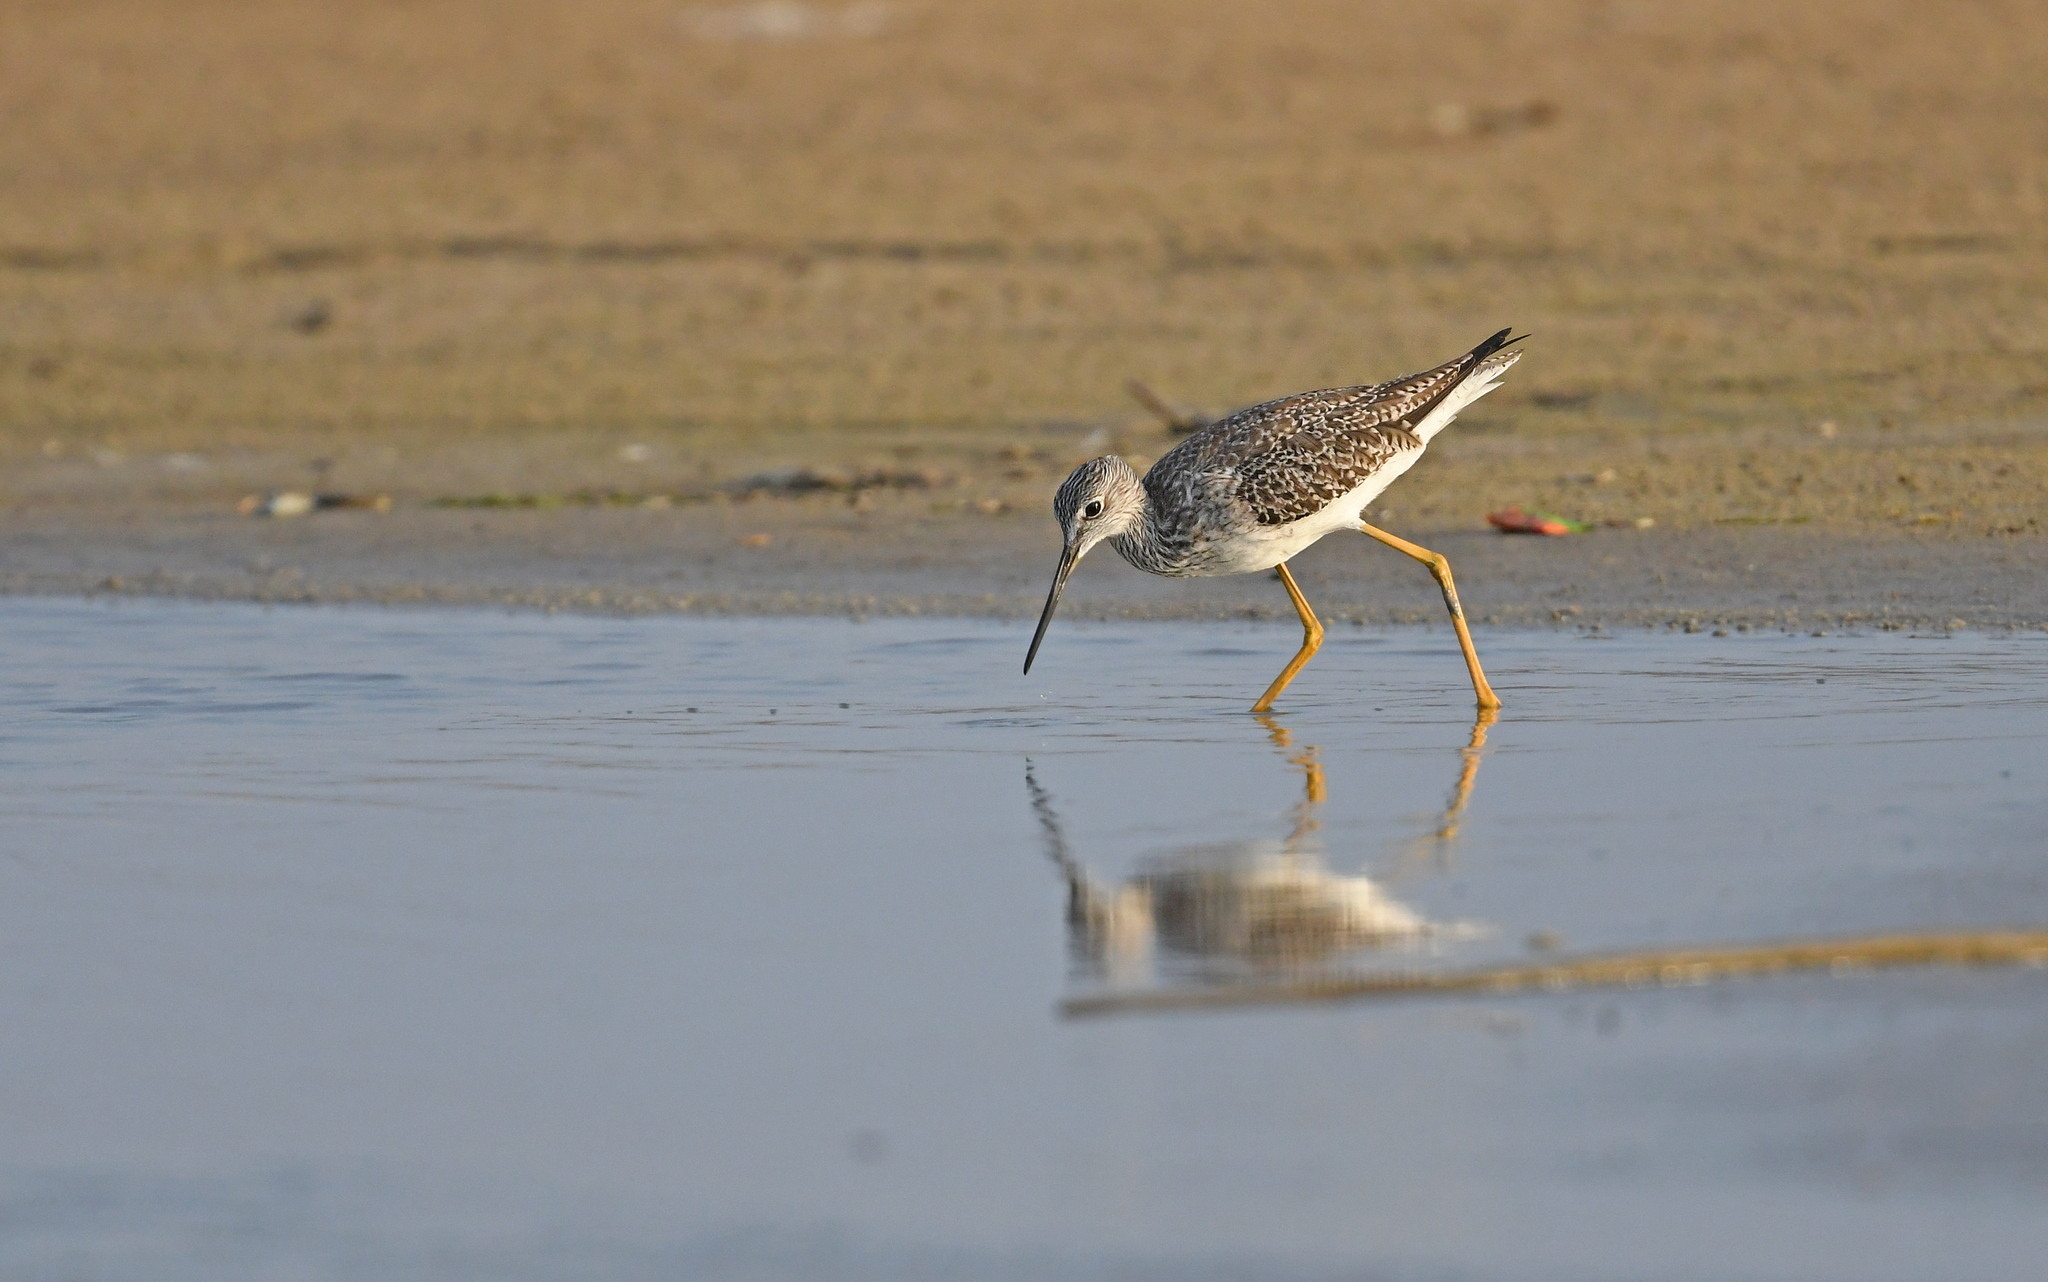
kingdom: Animalia
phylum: Chordata
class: Aves
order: Charadriiformes
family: Scolopacidae
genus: Tringa
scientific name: Tringa melanoleuca
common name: Greater yellowlegs
